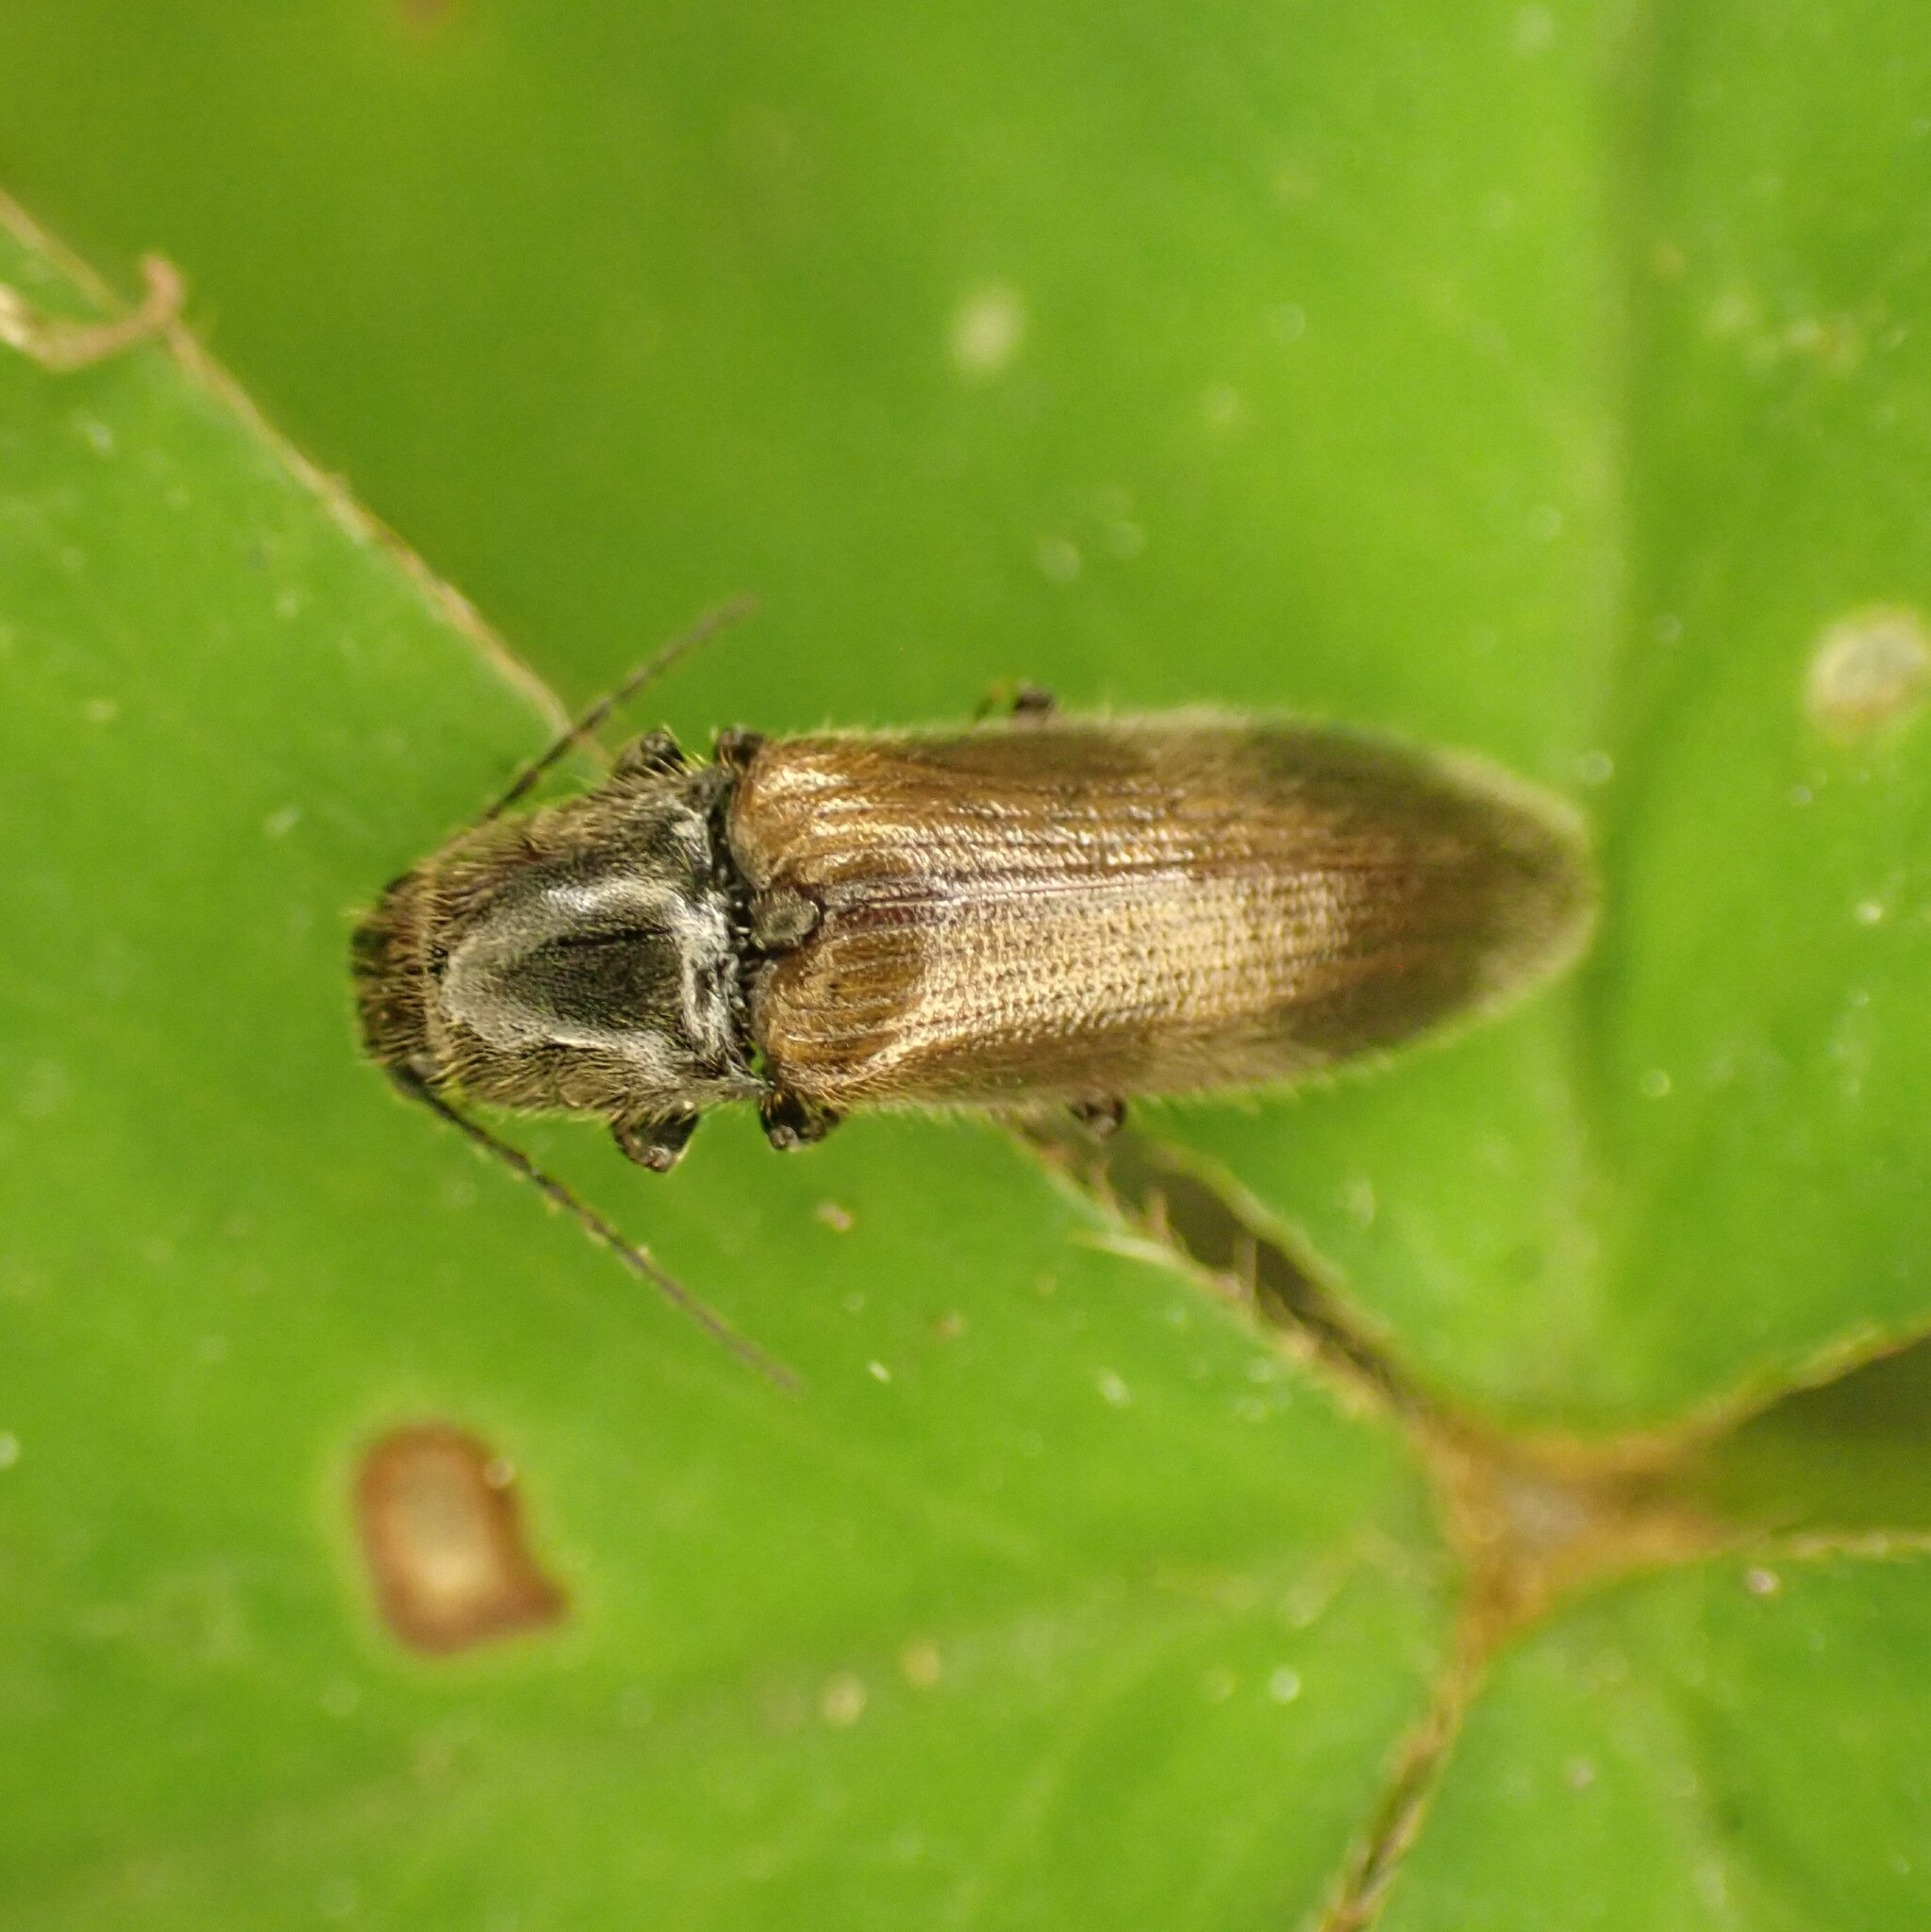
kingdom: Animalia
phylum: Arthropoda
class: Insecta
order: Coleoptera
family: Elateridae
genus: Hemicrepidius
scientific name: Hemicrepidius pallidipennis
